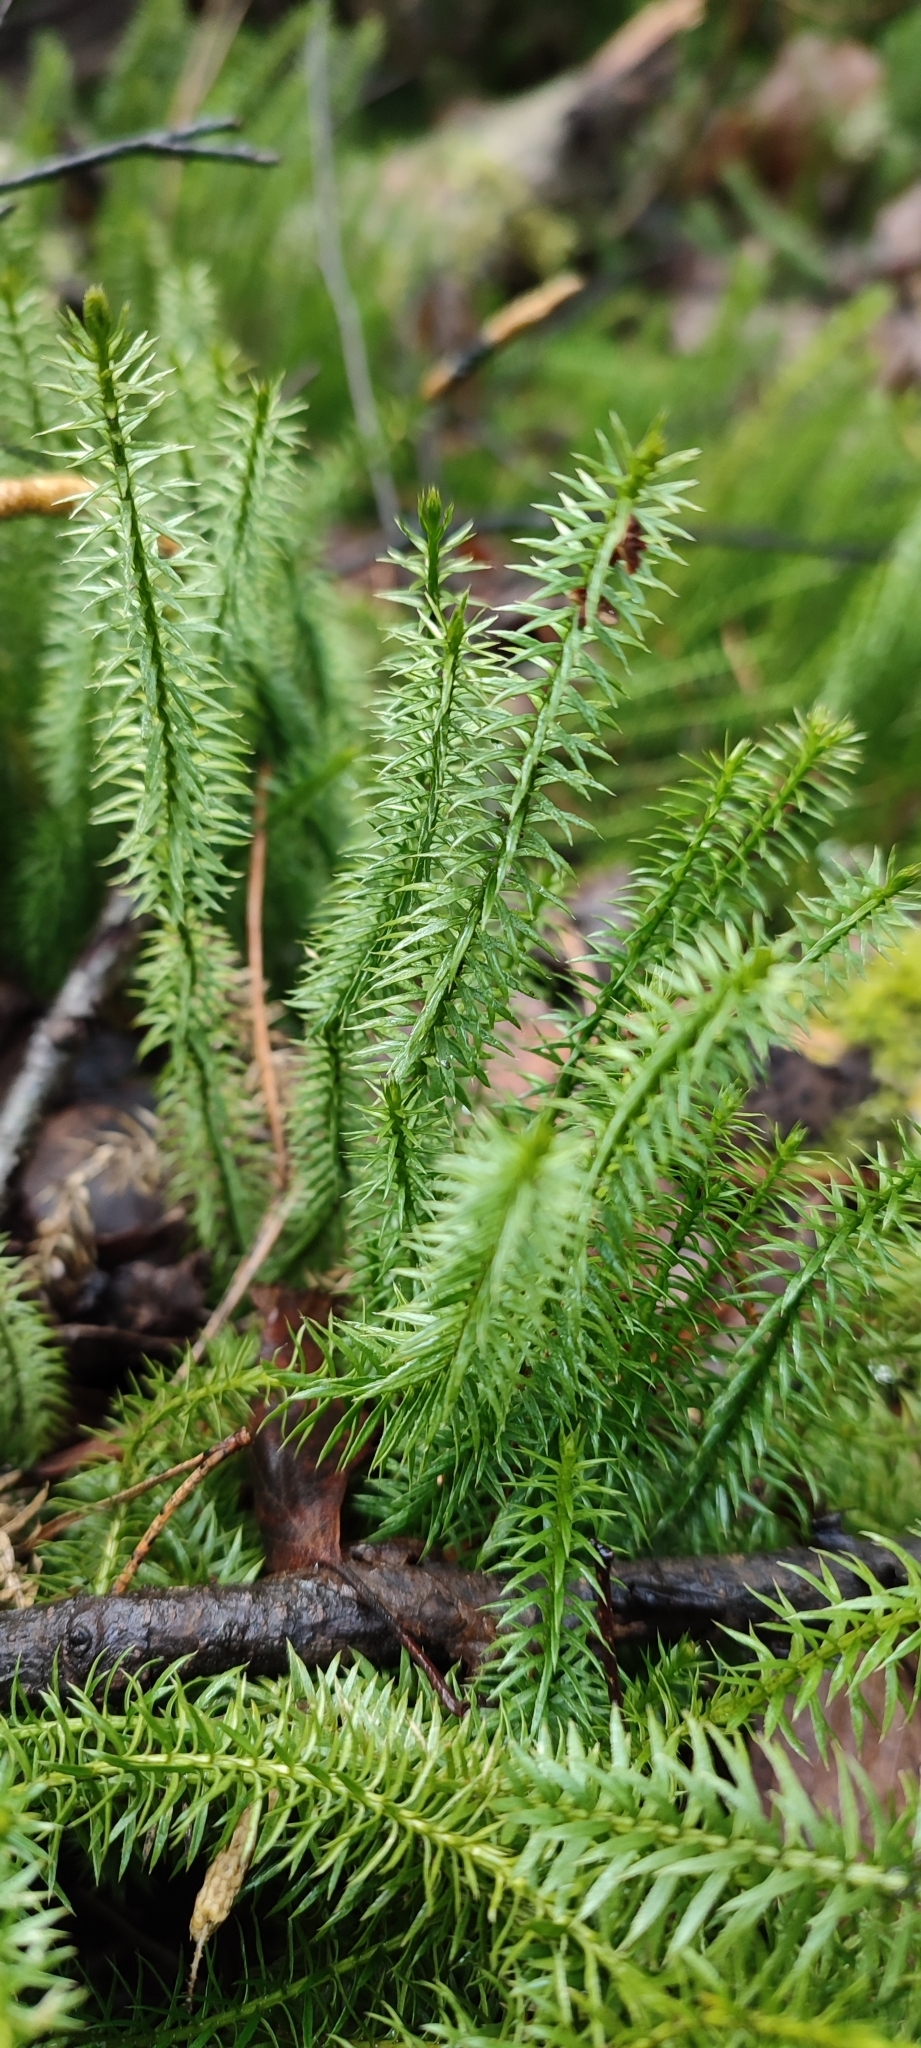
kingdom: Plantae
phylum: Tracheophyta
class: Lycopodiopsida
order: Lycopodiales
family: Lycopodiaceae
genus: Spinulum
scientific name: Spinulum annotinum
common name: Interrupted club-moss
